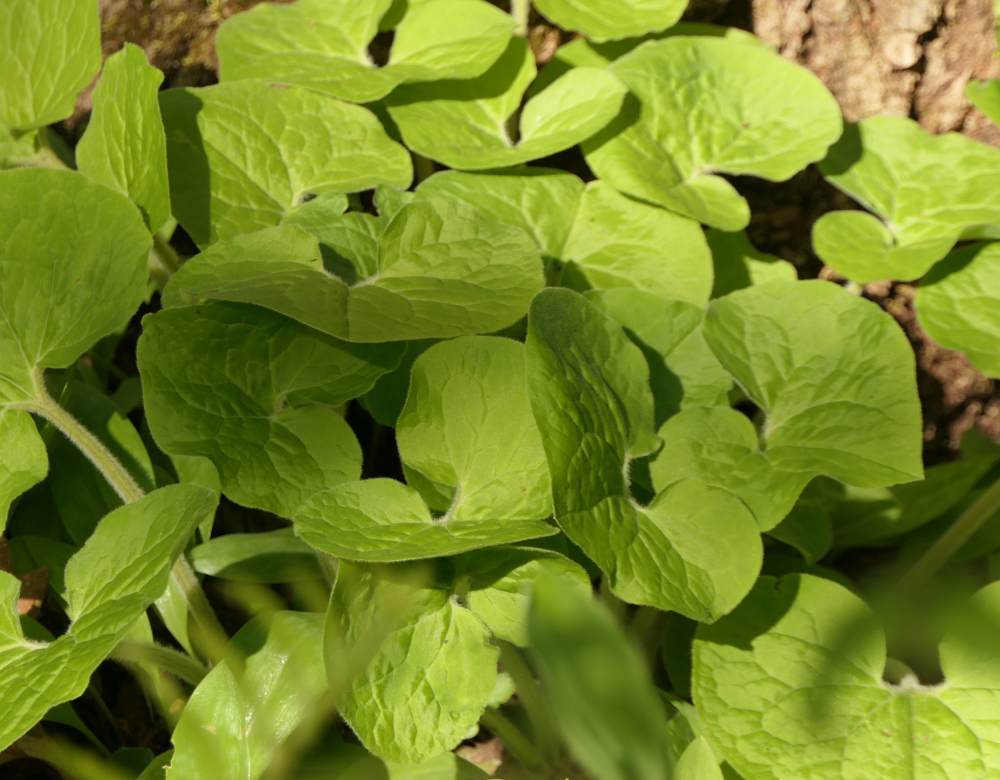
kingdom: Plantae
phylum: Tracheophyta
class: Magnoliopsida
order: Piperales
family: Aristolochiaceae
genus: Asarum
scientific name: Asarum canadense
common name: Wild ginger
